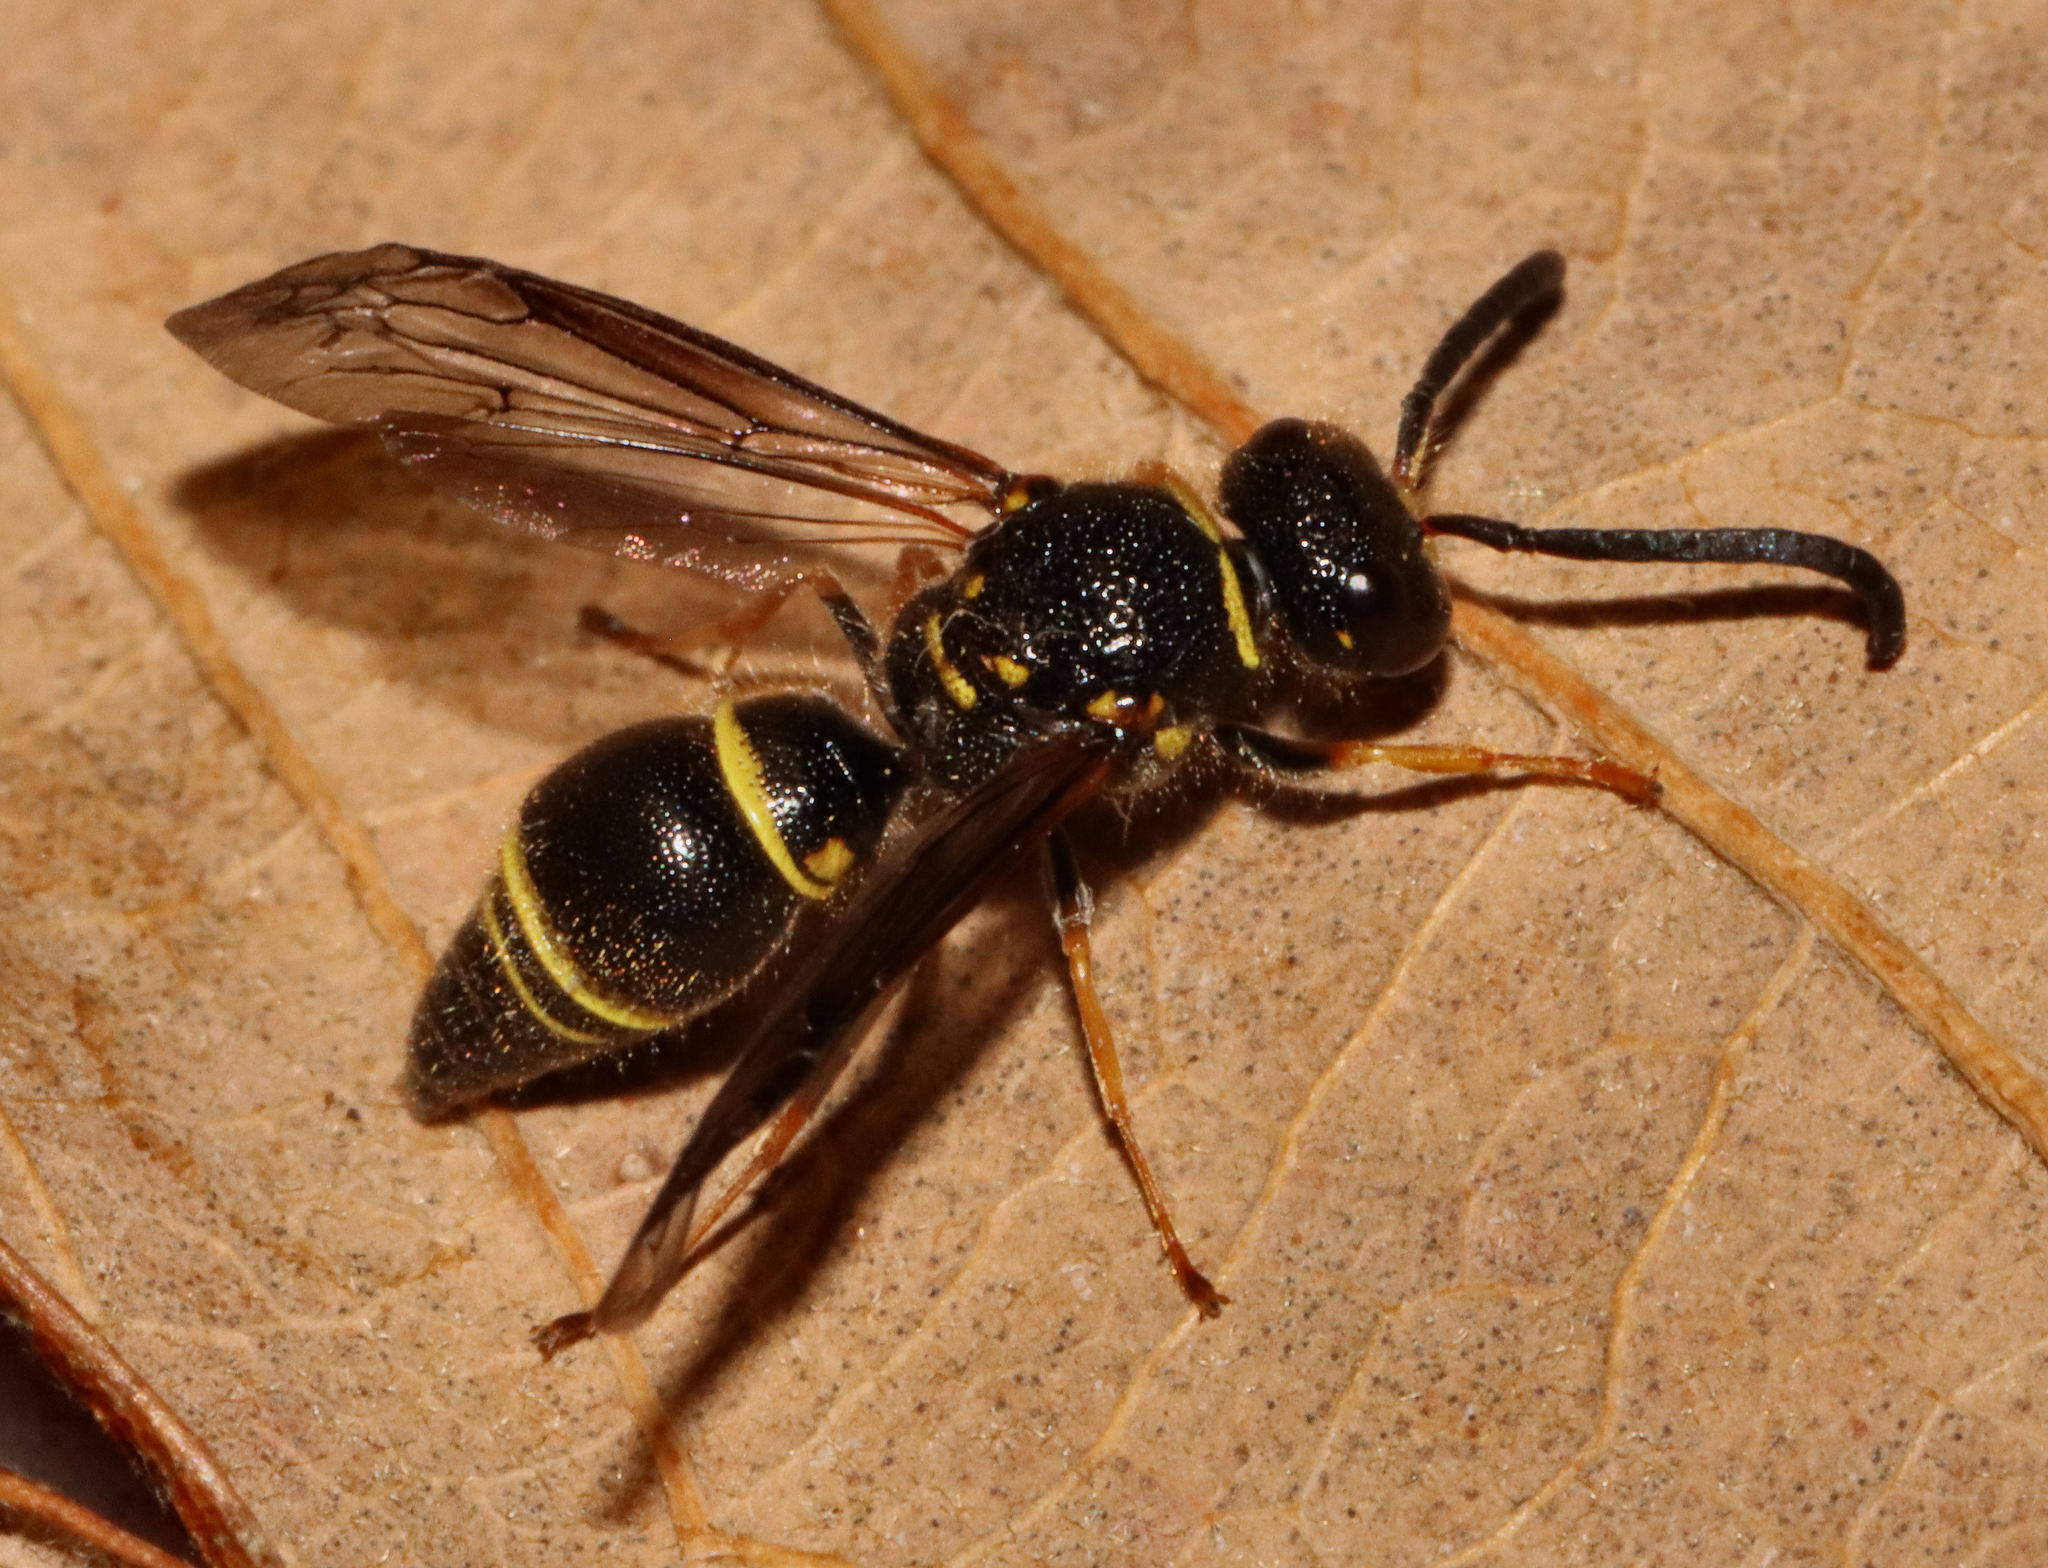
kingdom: Animalia
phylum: Arthropoda
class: Insecta
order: Hymenoptera
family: Vespidae
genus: Ancistrocerus
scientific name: Ancistrocerus campestris
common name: Smiling mason wasp
